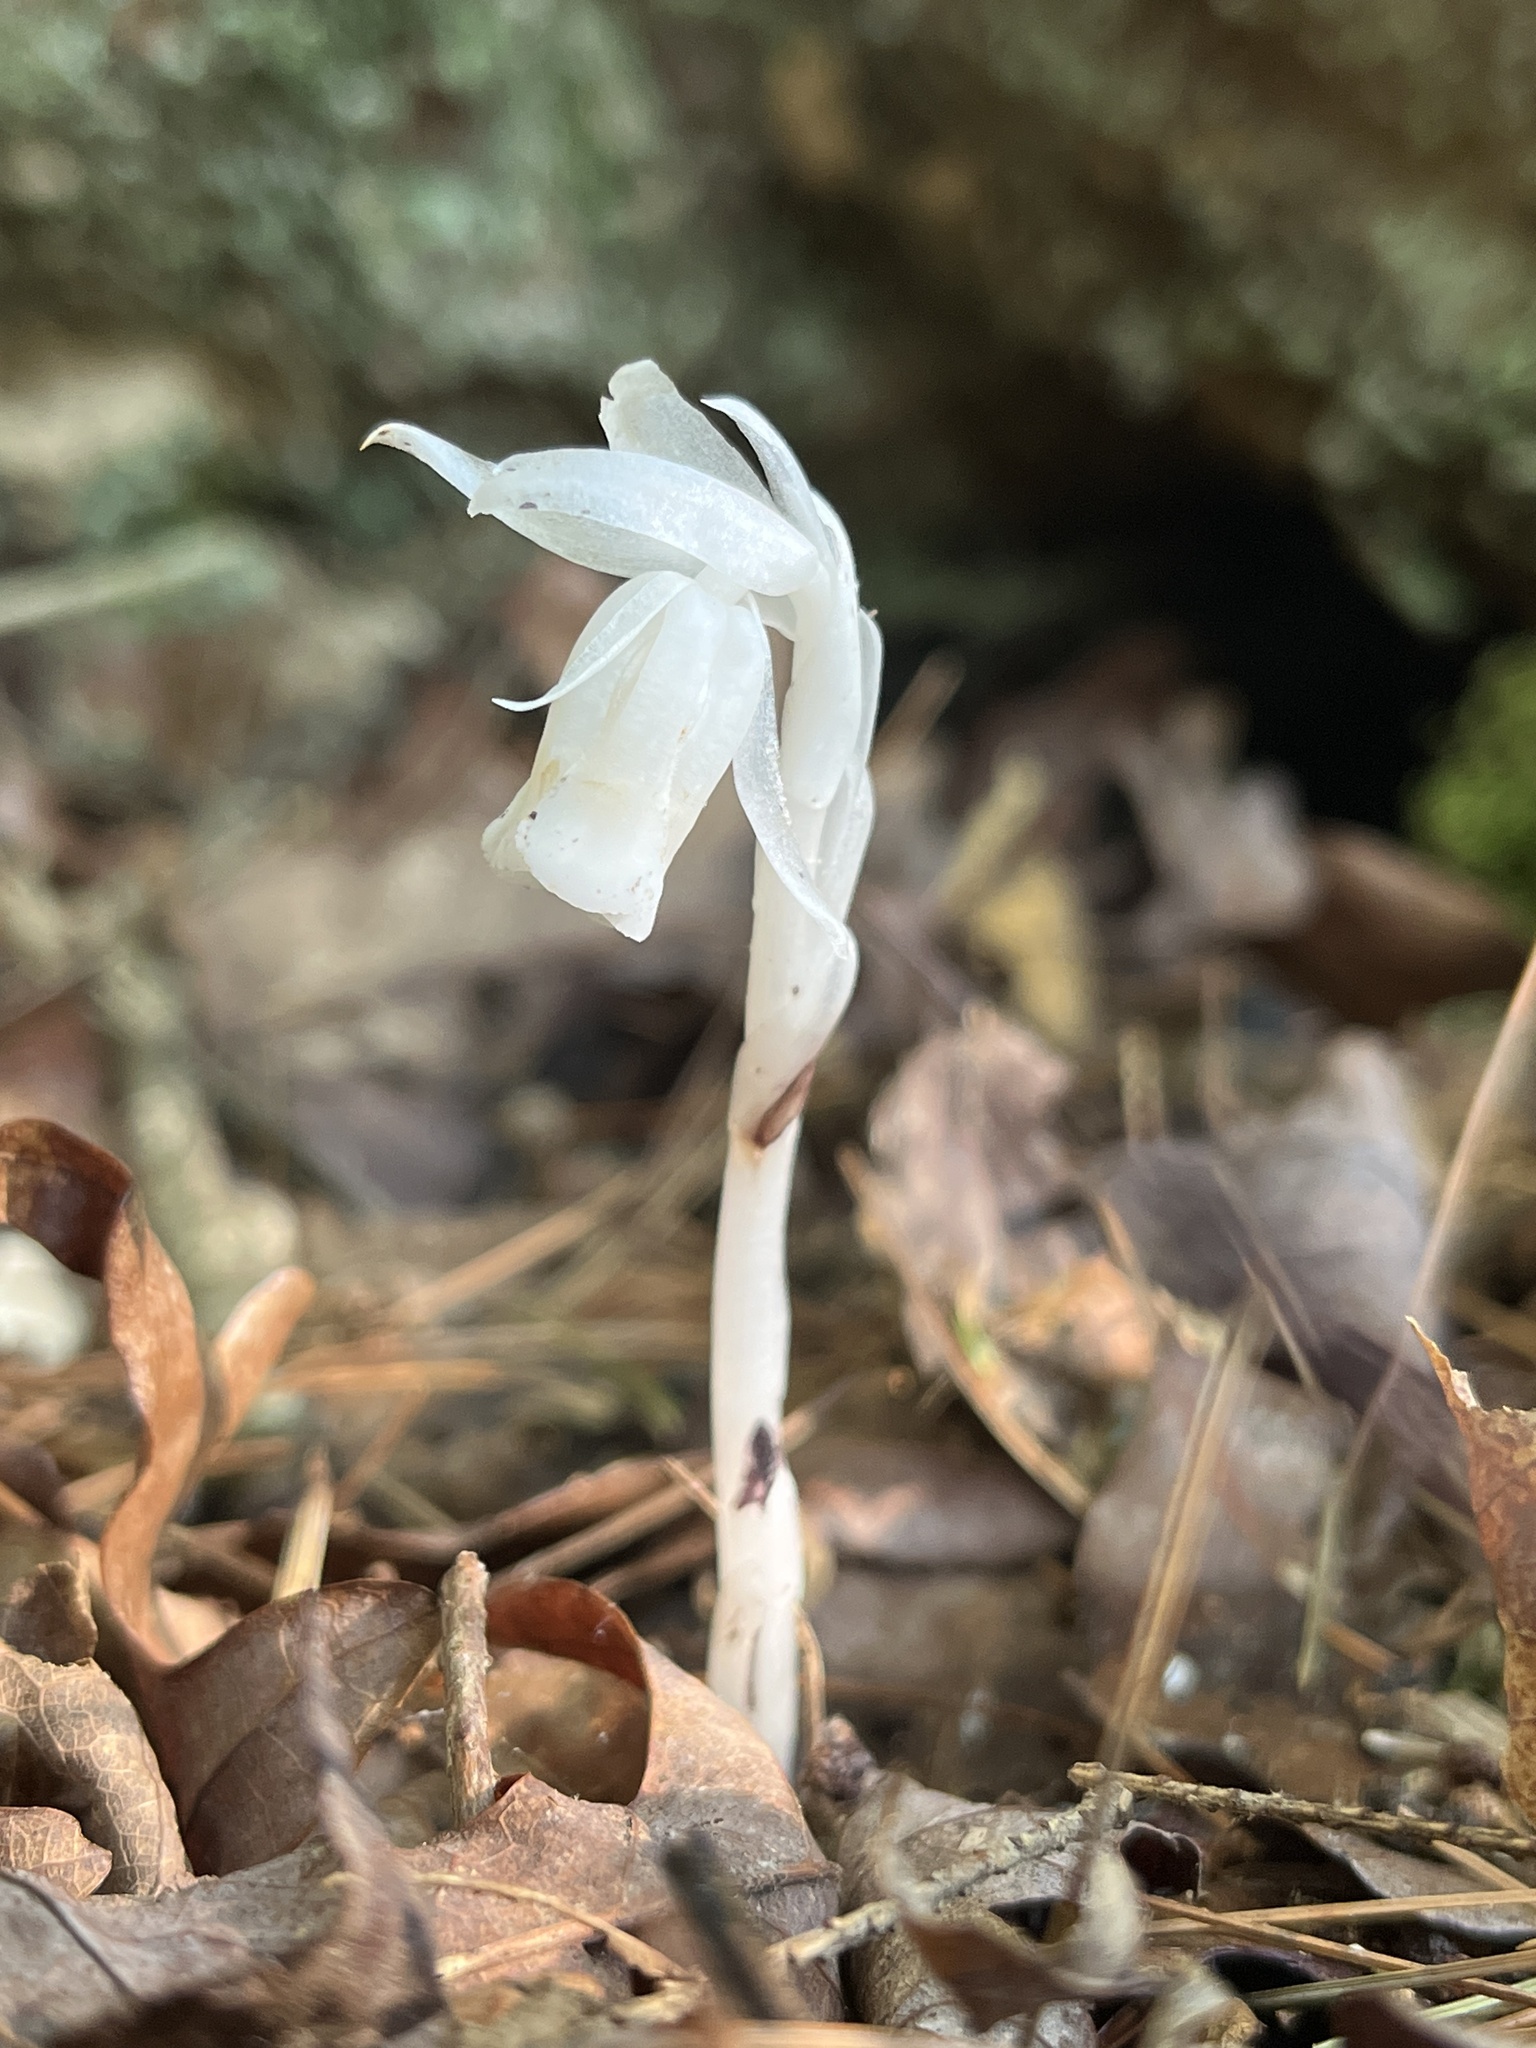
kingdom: Plantae
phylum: Tracheophyta
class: Magnoliopsida
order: Ericales
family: Ericaceae
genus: Monotropa
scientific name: Monotropa uniflora
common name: Convulsion root
